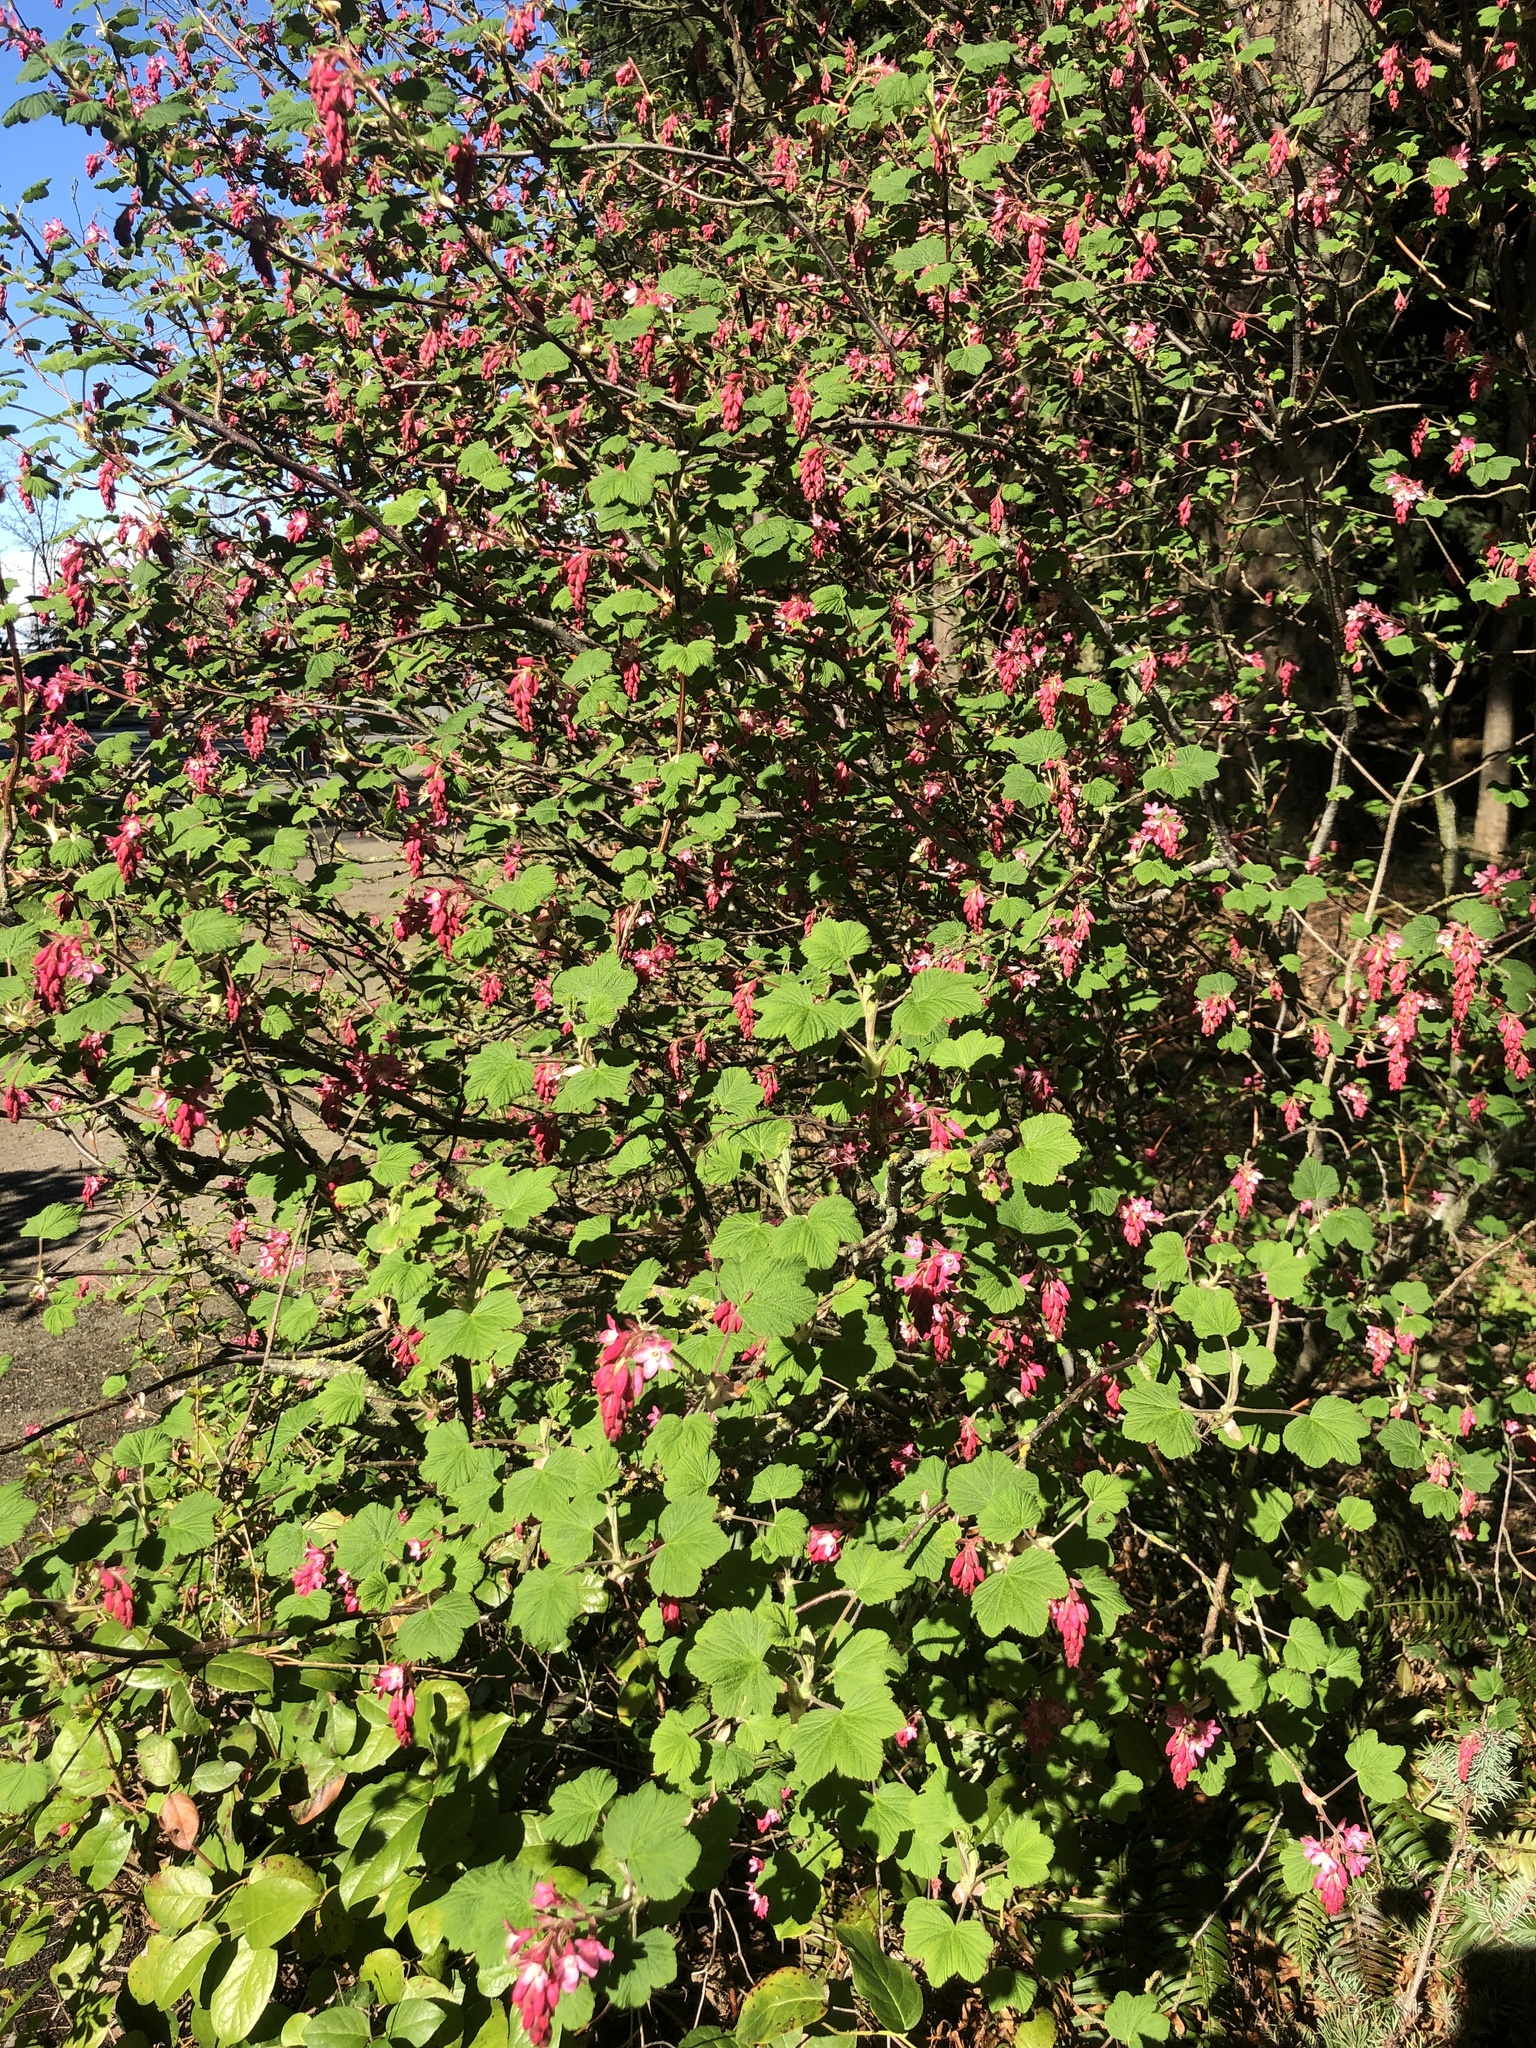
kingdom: Plantae
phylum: Tracheophyta
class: Magnoliopsida
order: Saxifragales
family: Grossulariaceae
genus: Ribes
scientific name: Ribes sanguineum
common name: Flowering currant
